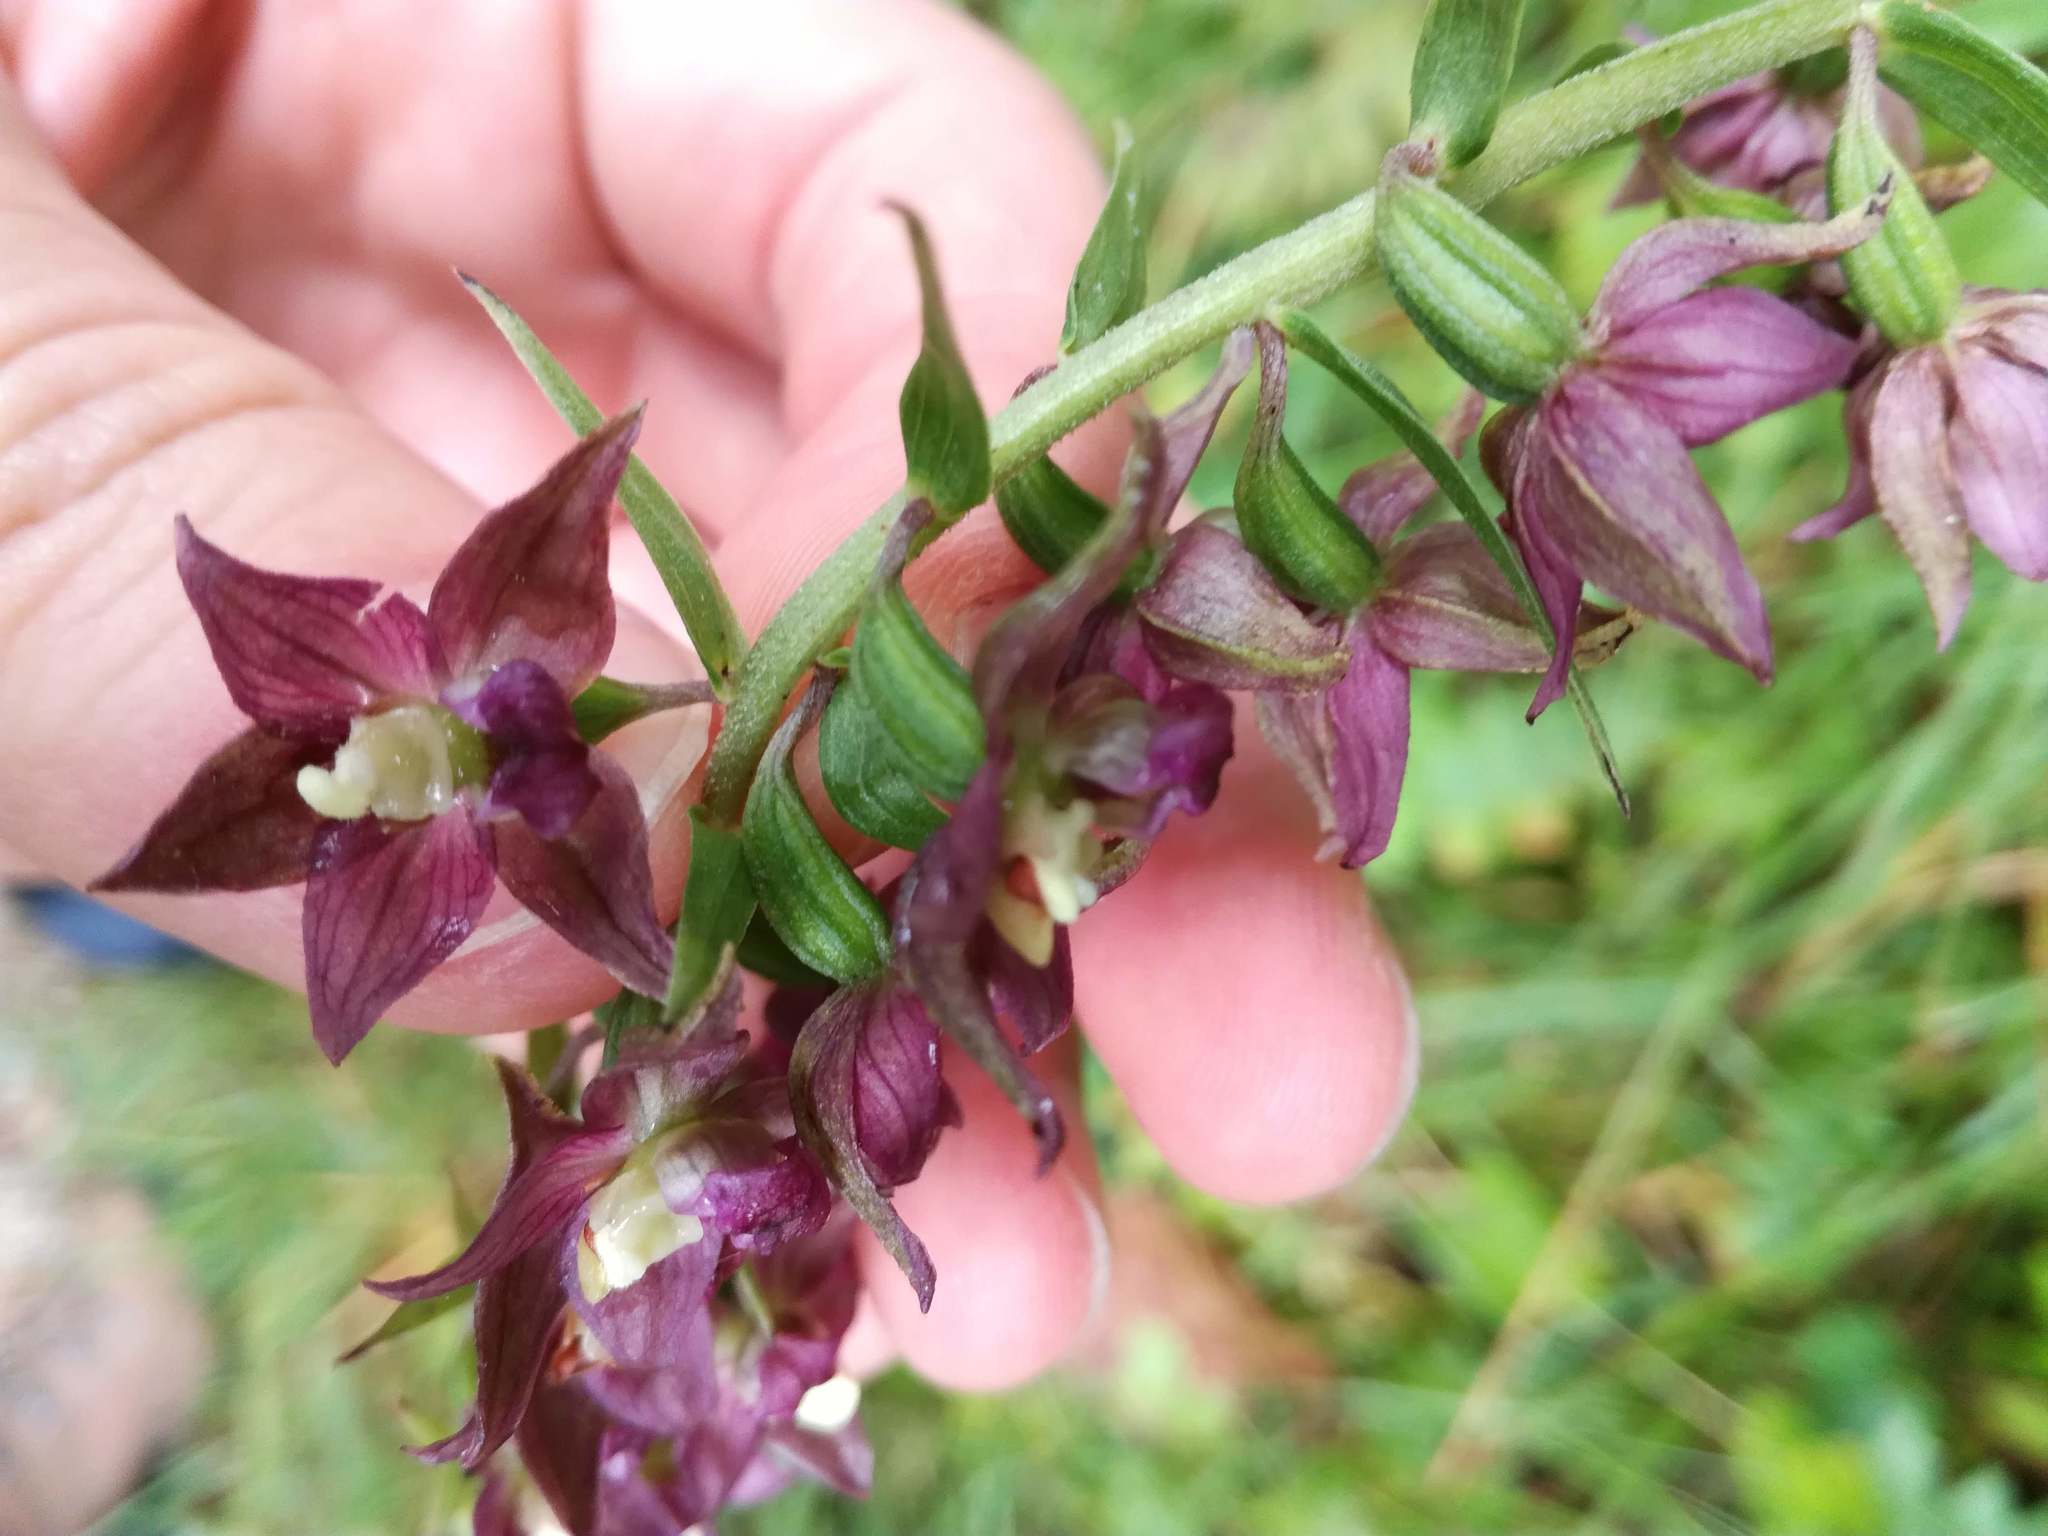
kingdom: Plantae
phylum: Tracheophyta
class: Liliopsida
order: Asparagales
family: Orchidaceae
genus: Epipactis
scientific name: Epipactis atrorubens
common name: Dark-red helleborine
